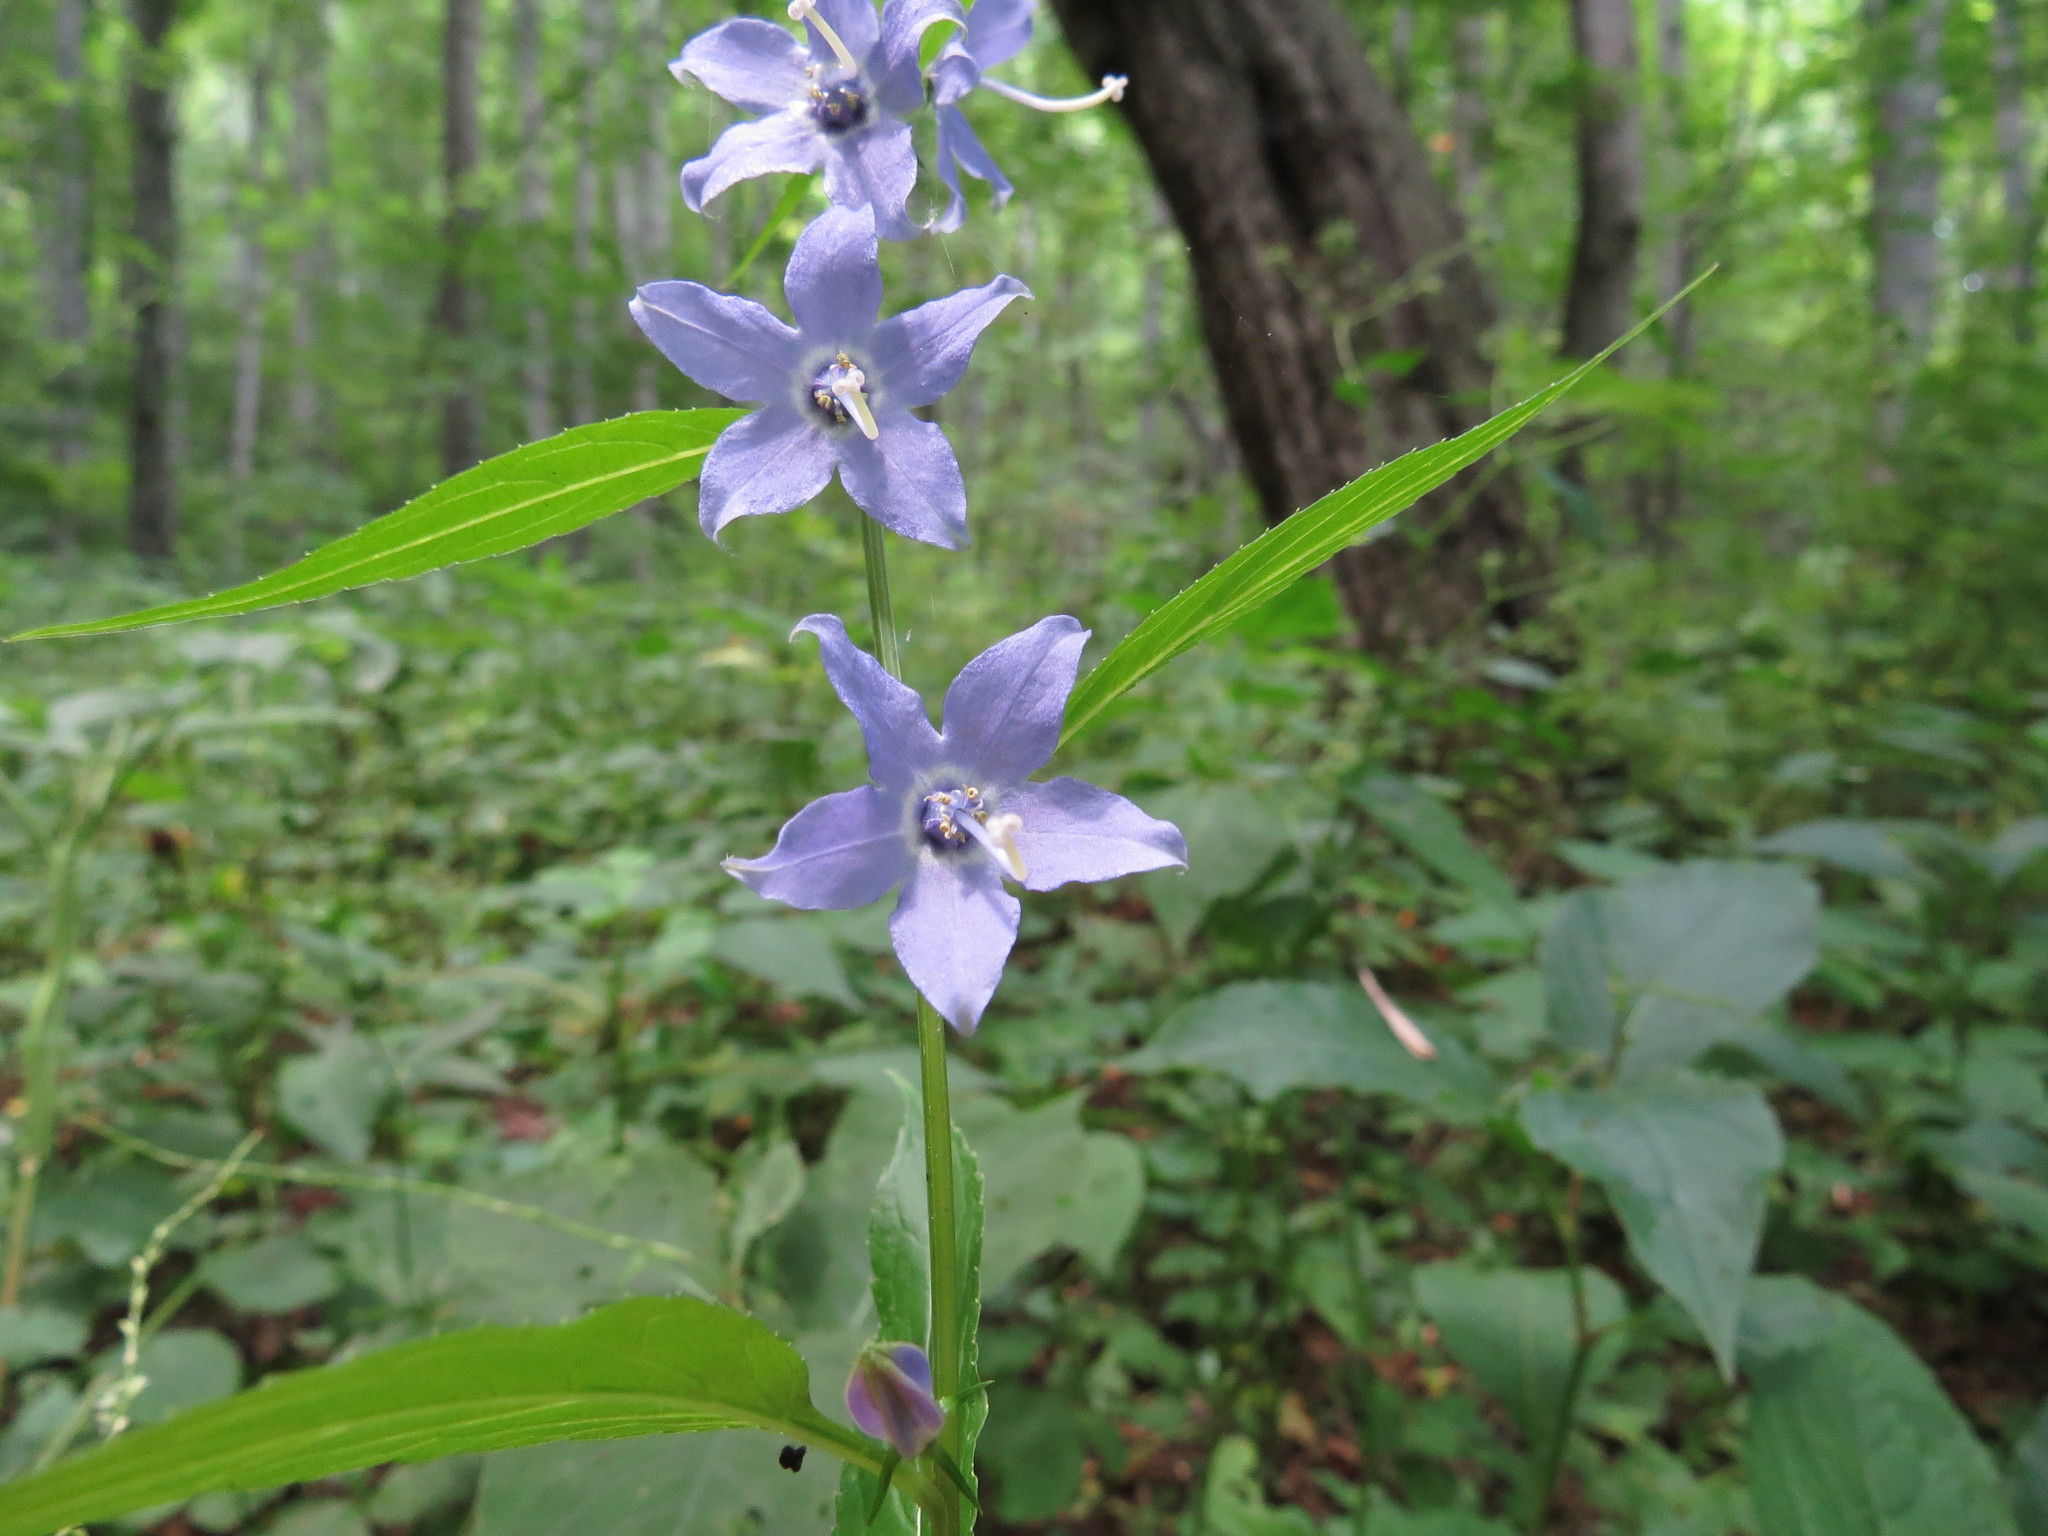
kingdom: Plantae
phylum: Tracheophyta
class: Magnoliopsida
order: Asterales
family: Campanulaceae
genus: Campanulastrum
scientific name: Campanulastrum americanum
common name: American bellflower
